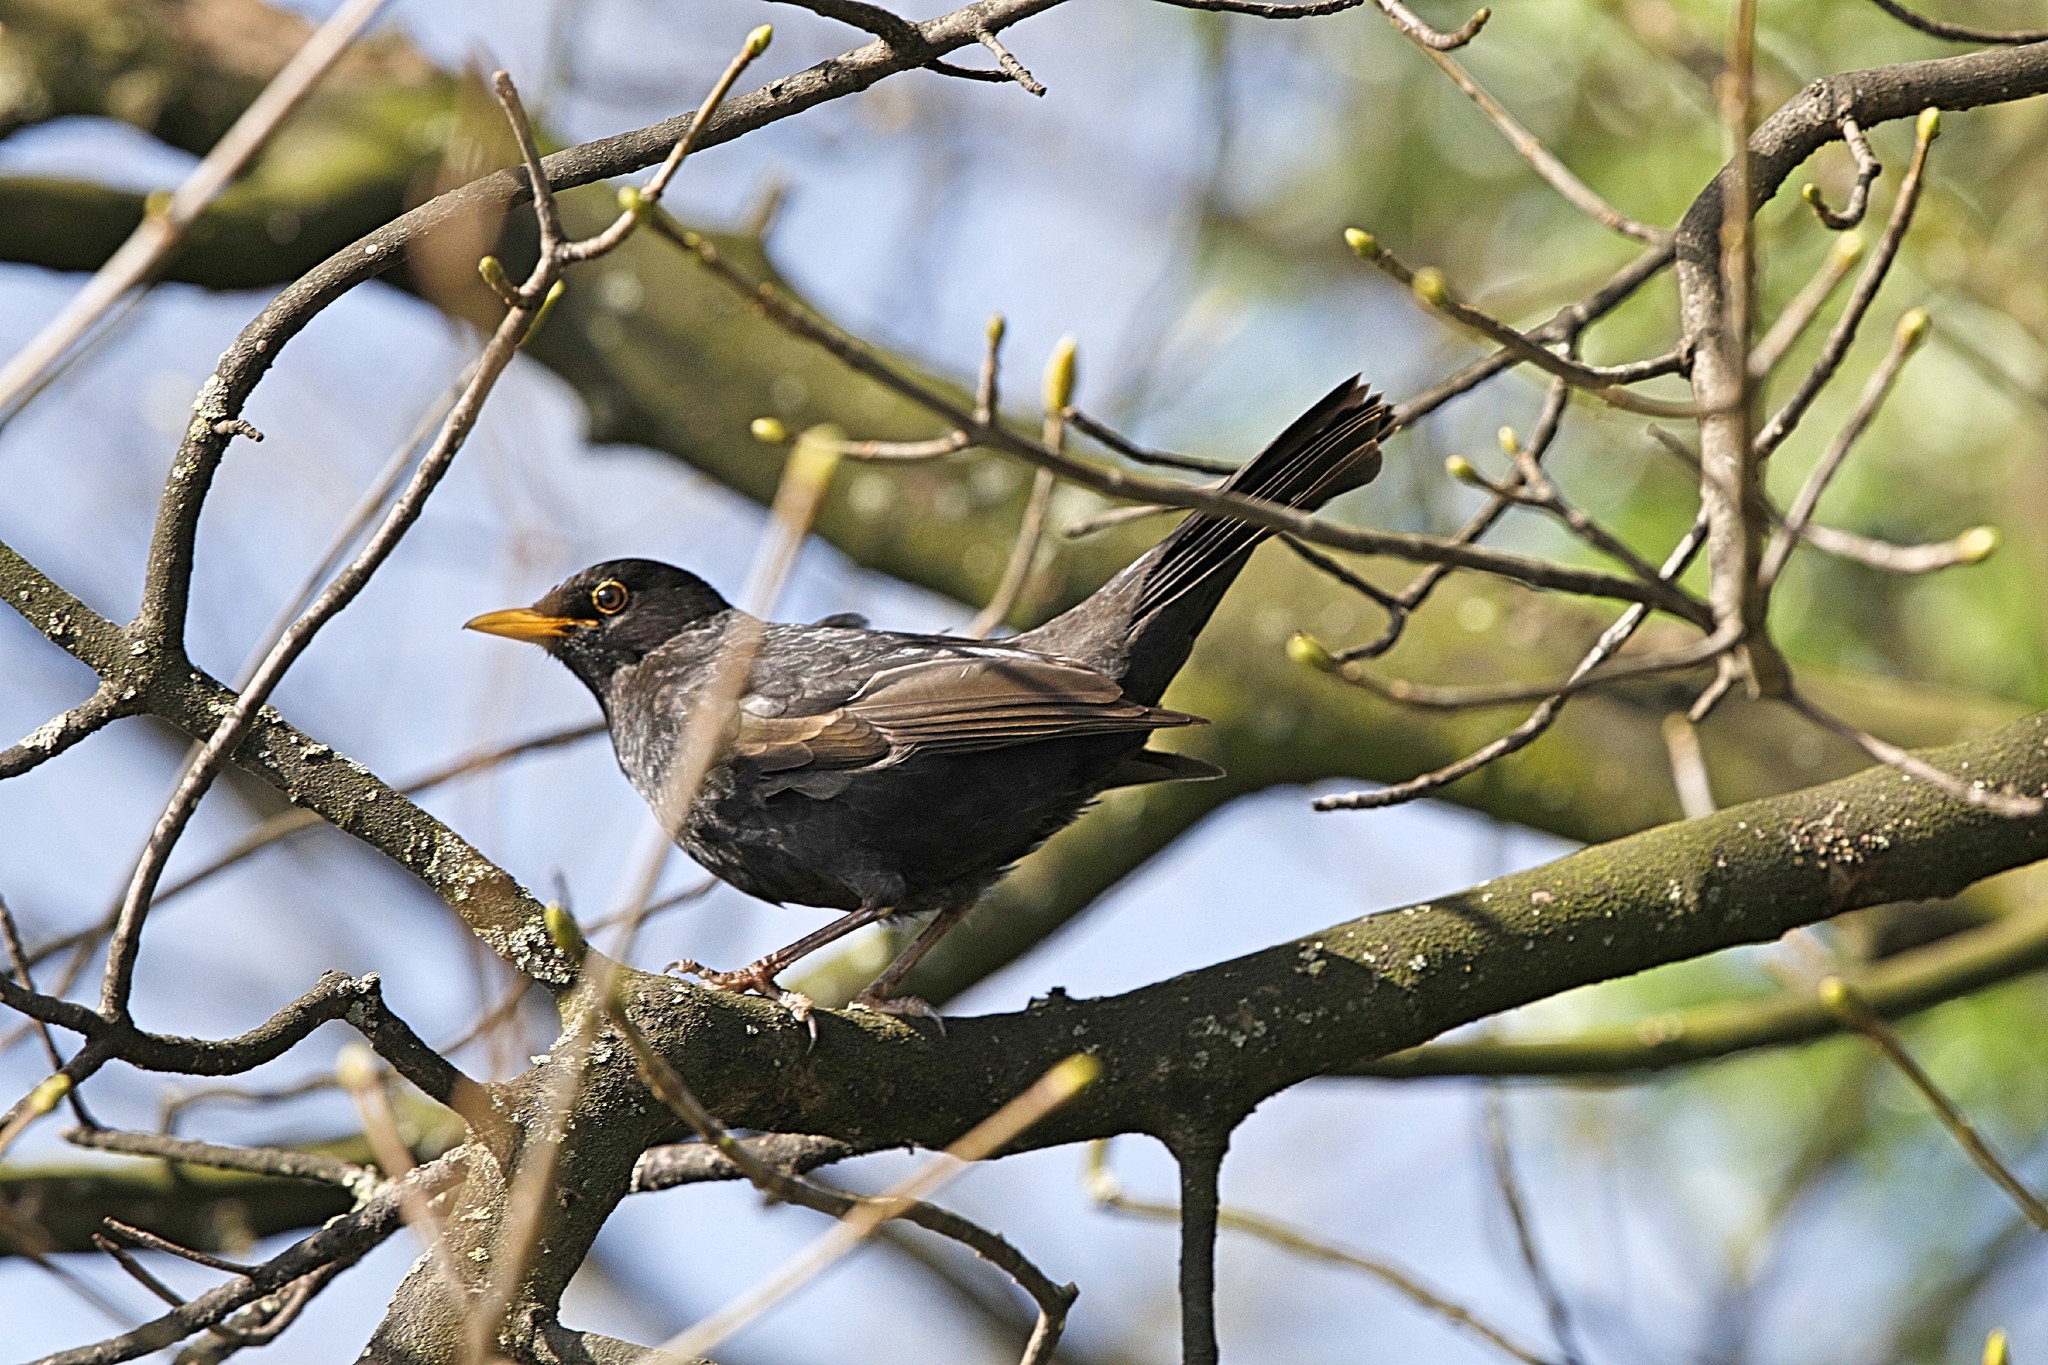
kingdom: Animalia
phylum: Chordata
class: Aves
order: Passeriformes
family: Turdidae
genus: Turdus
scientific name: Turdus merula
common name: Common blackbird
